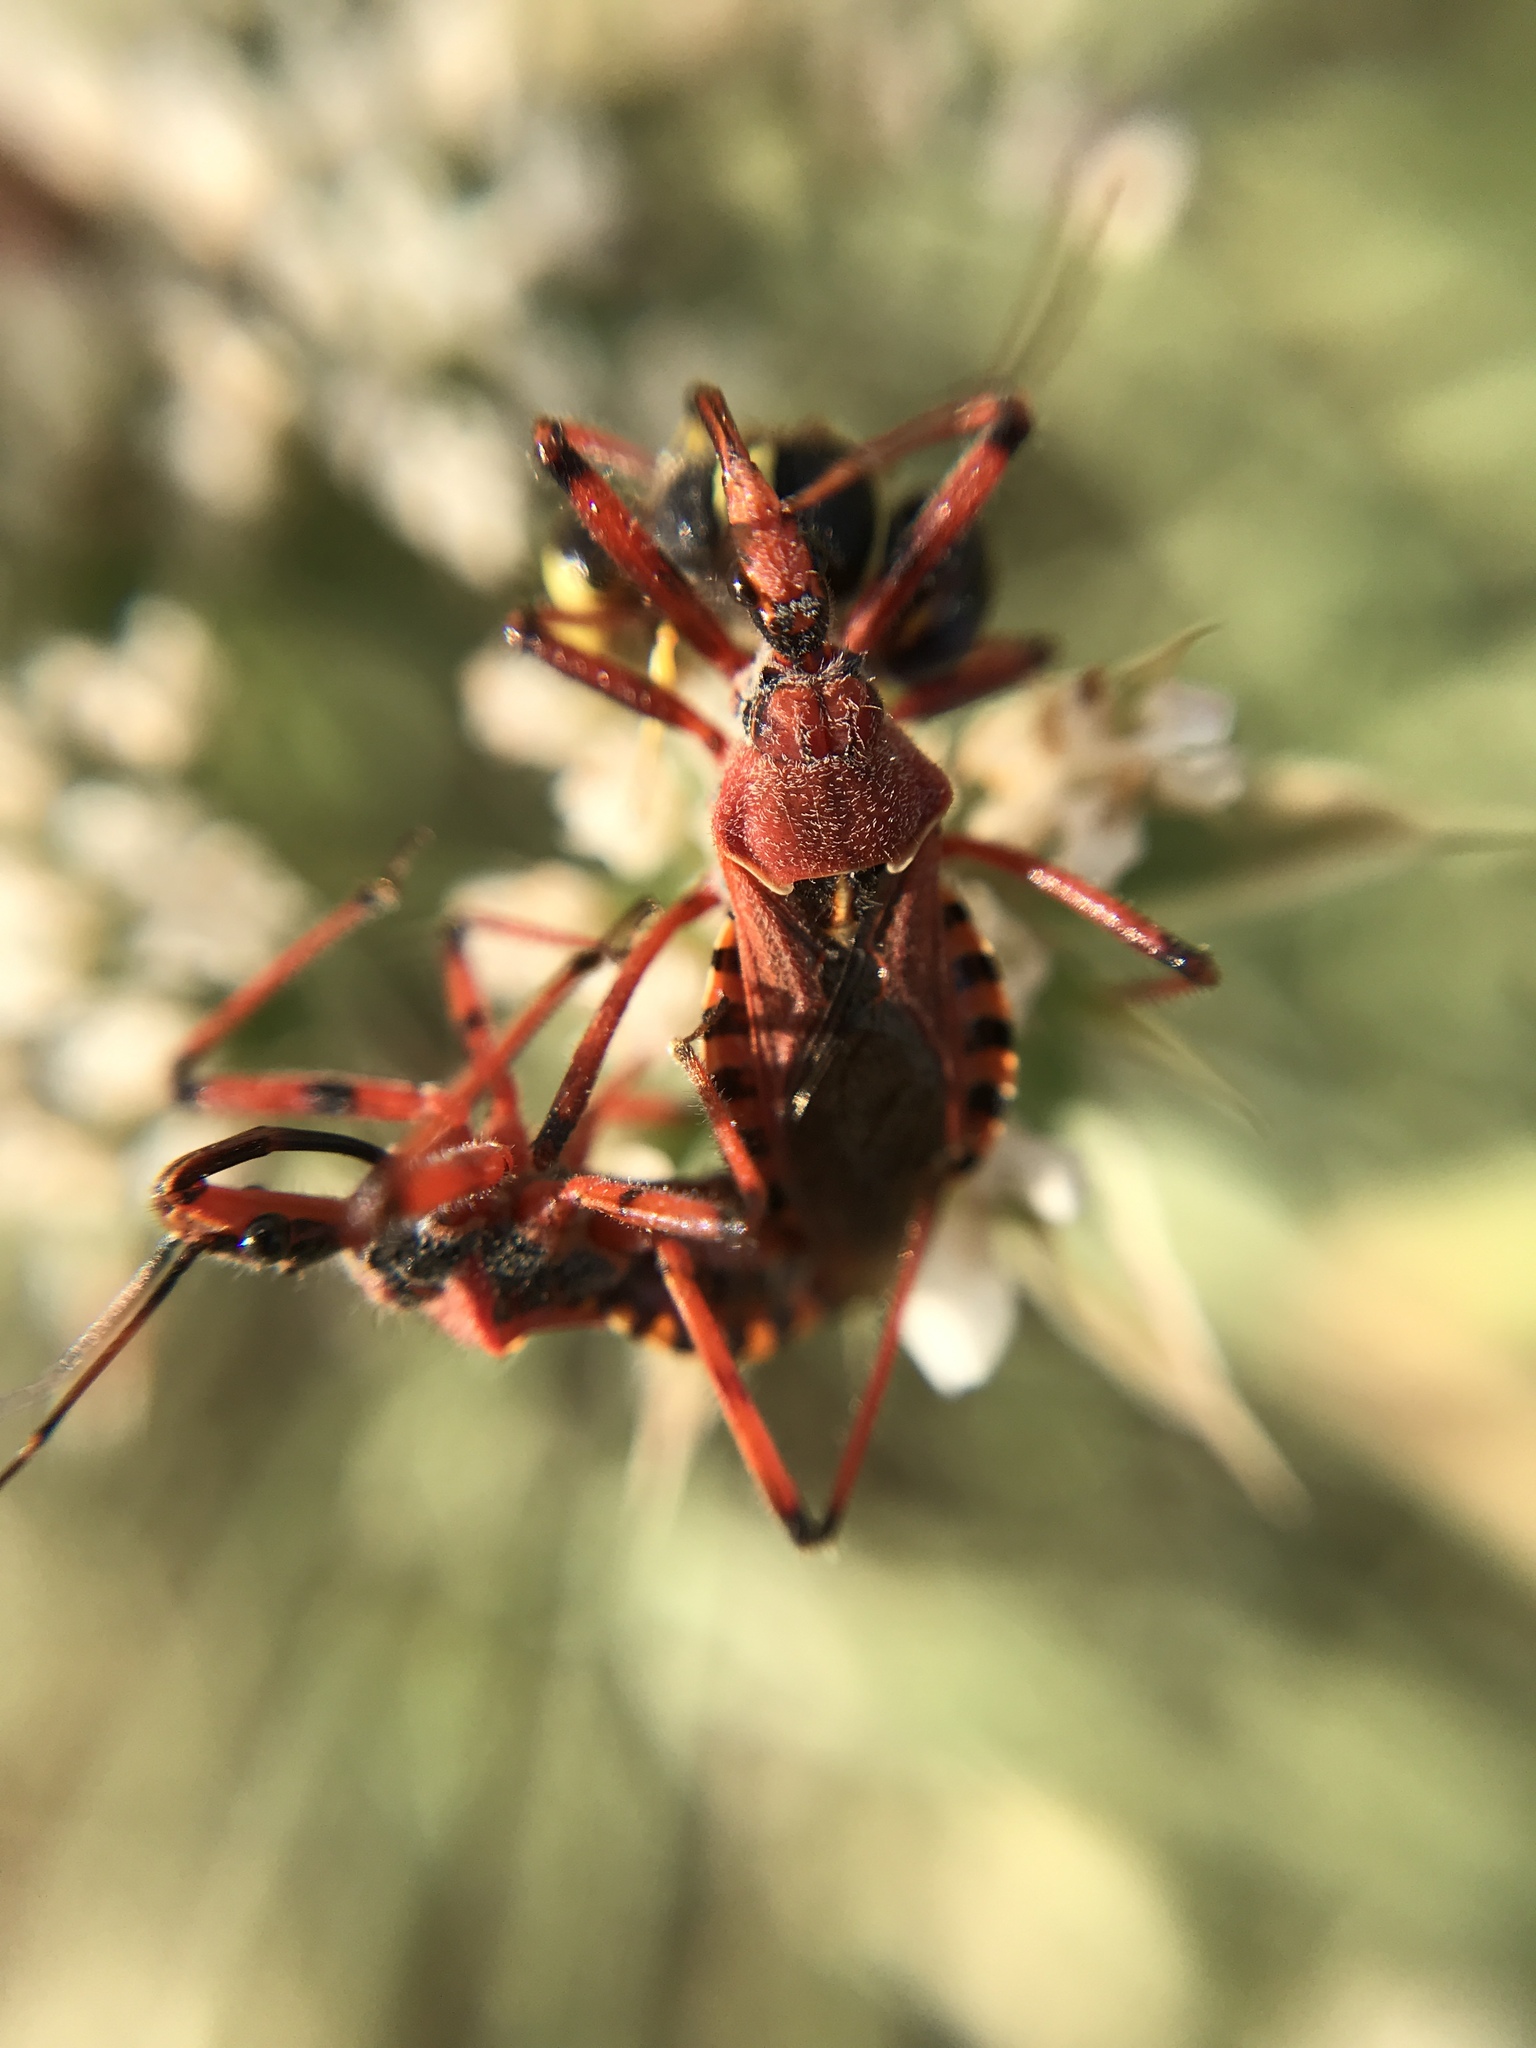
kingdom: Animalia
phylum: Arthropoda
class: Insecta
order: Hemiptera
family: Reduviidae
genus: Rhynocoris
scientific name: Rhynocoris erythropus
